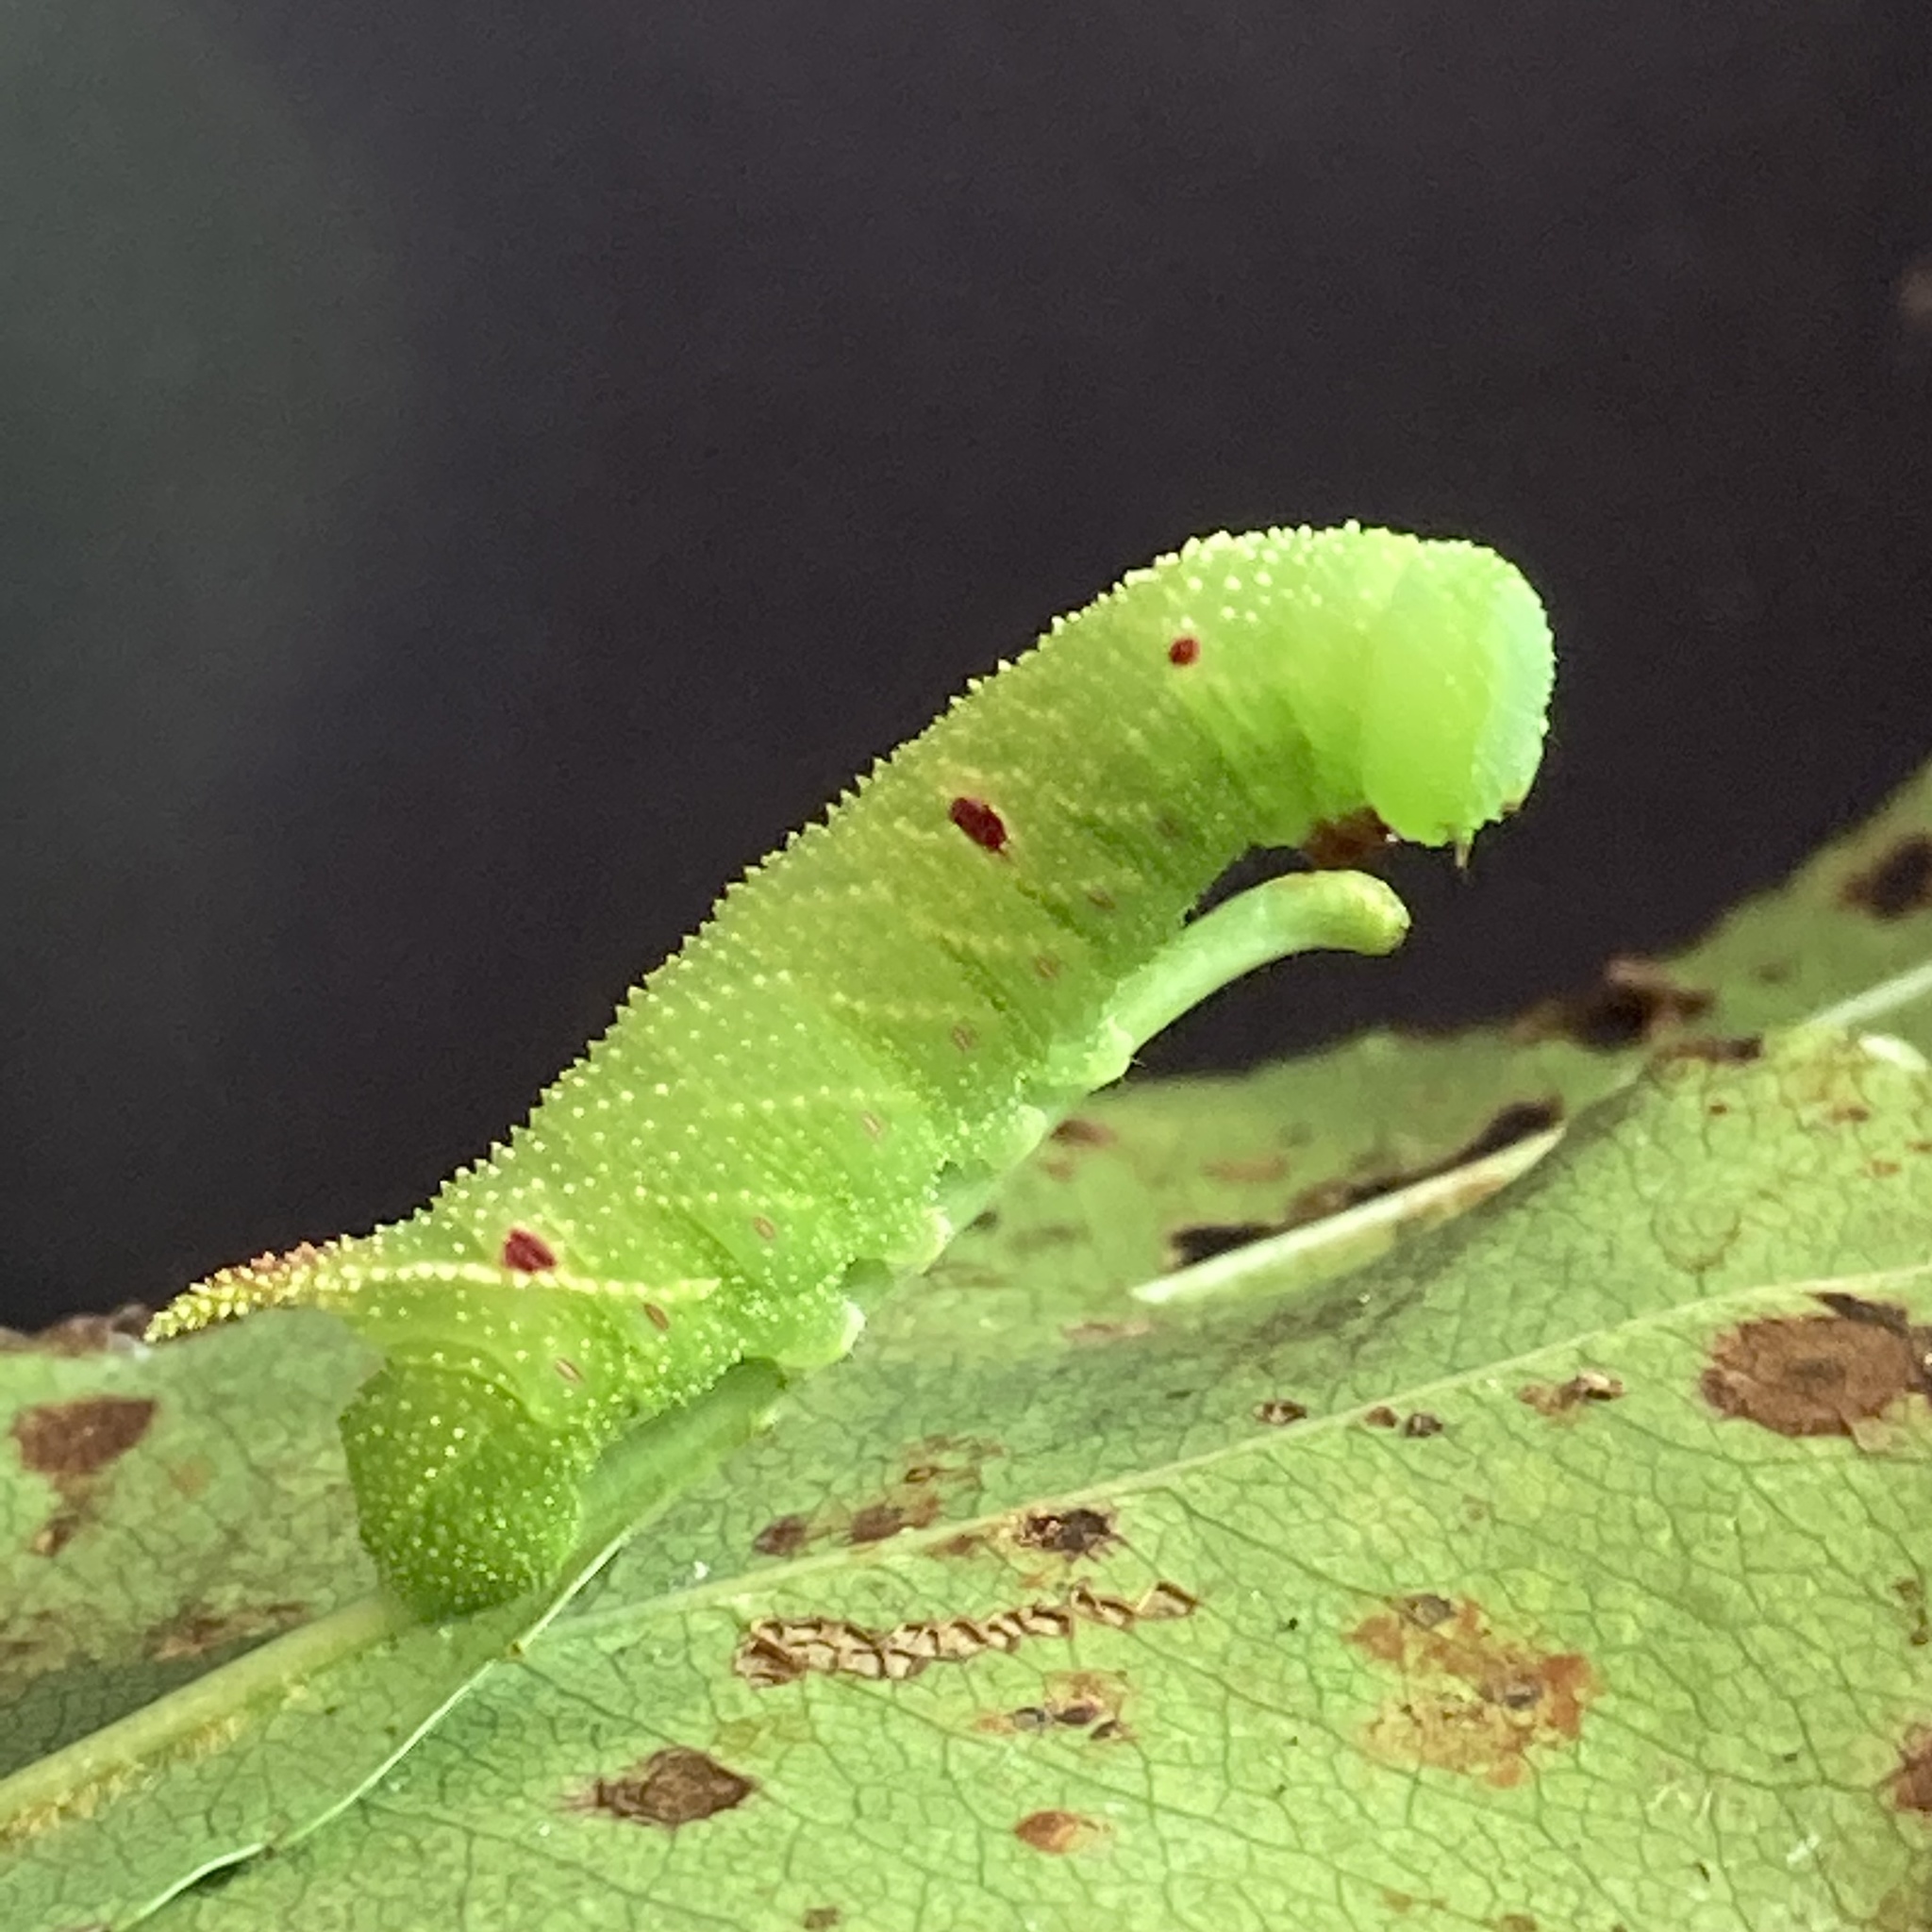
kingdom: Animalia
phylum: Arthropoda
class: Insecta
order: Lepidoptera
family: Sphingidae
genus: Paonias
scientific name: Paonias myops
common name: Small-eyed sphinx
